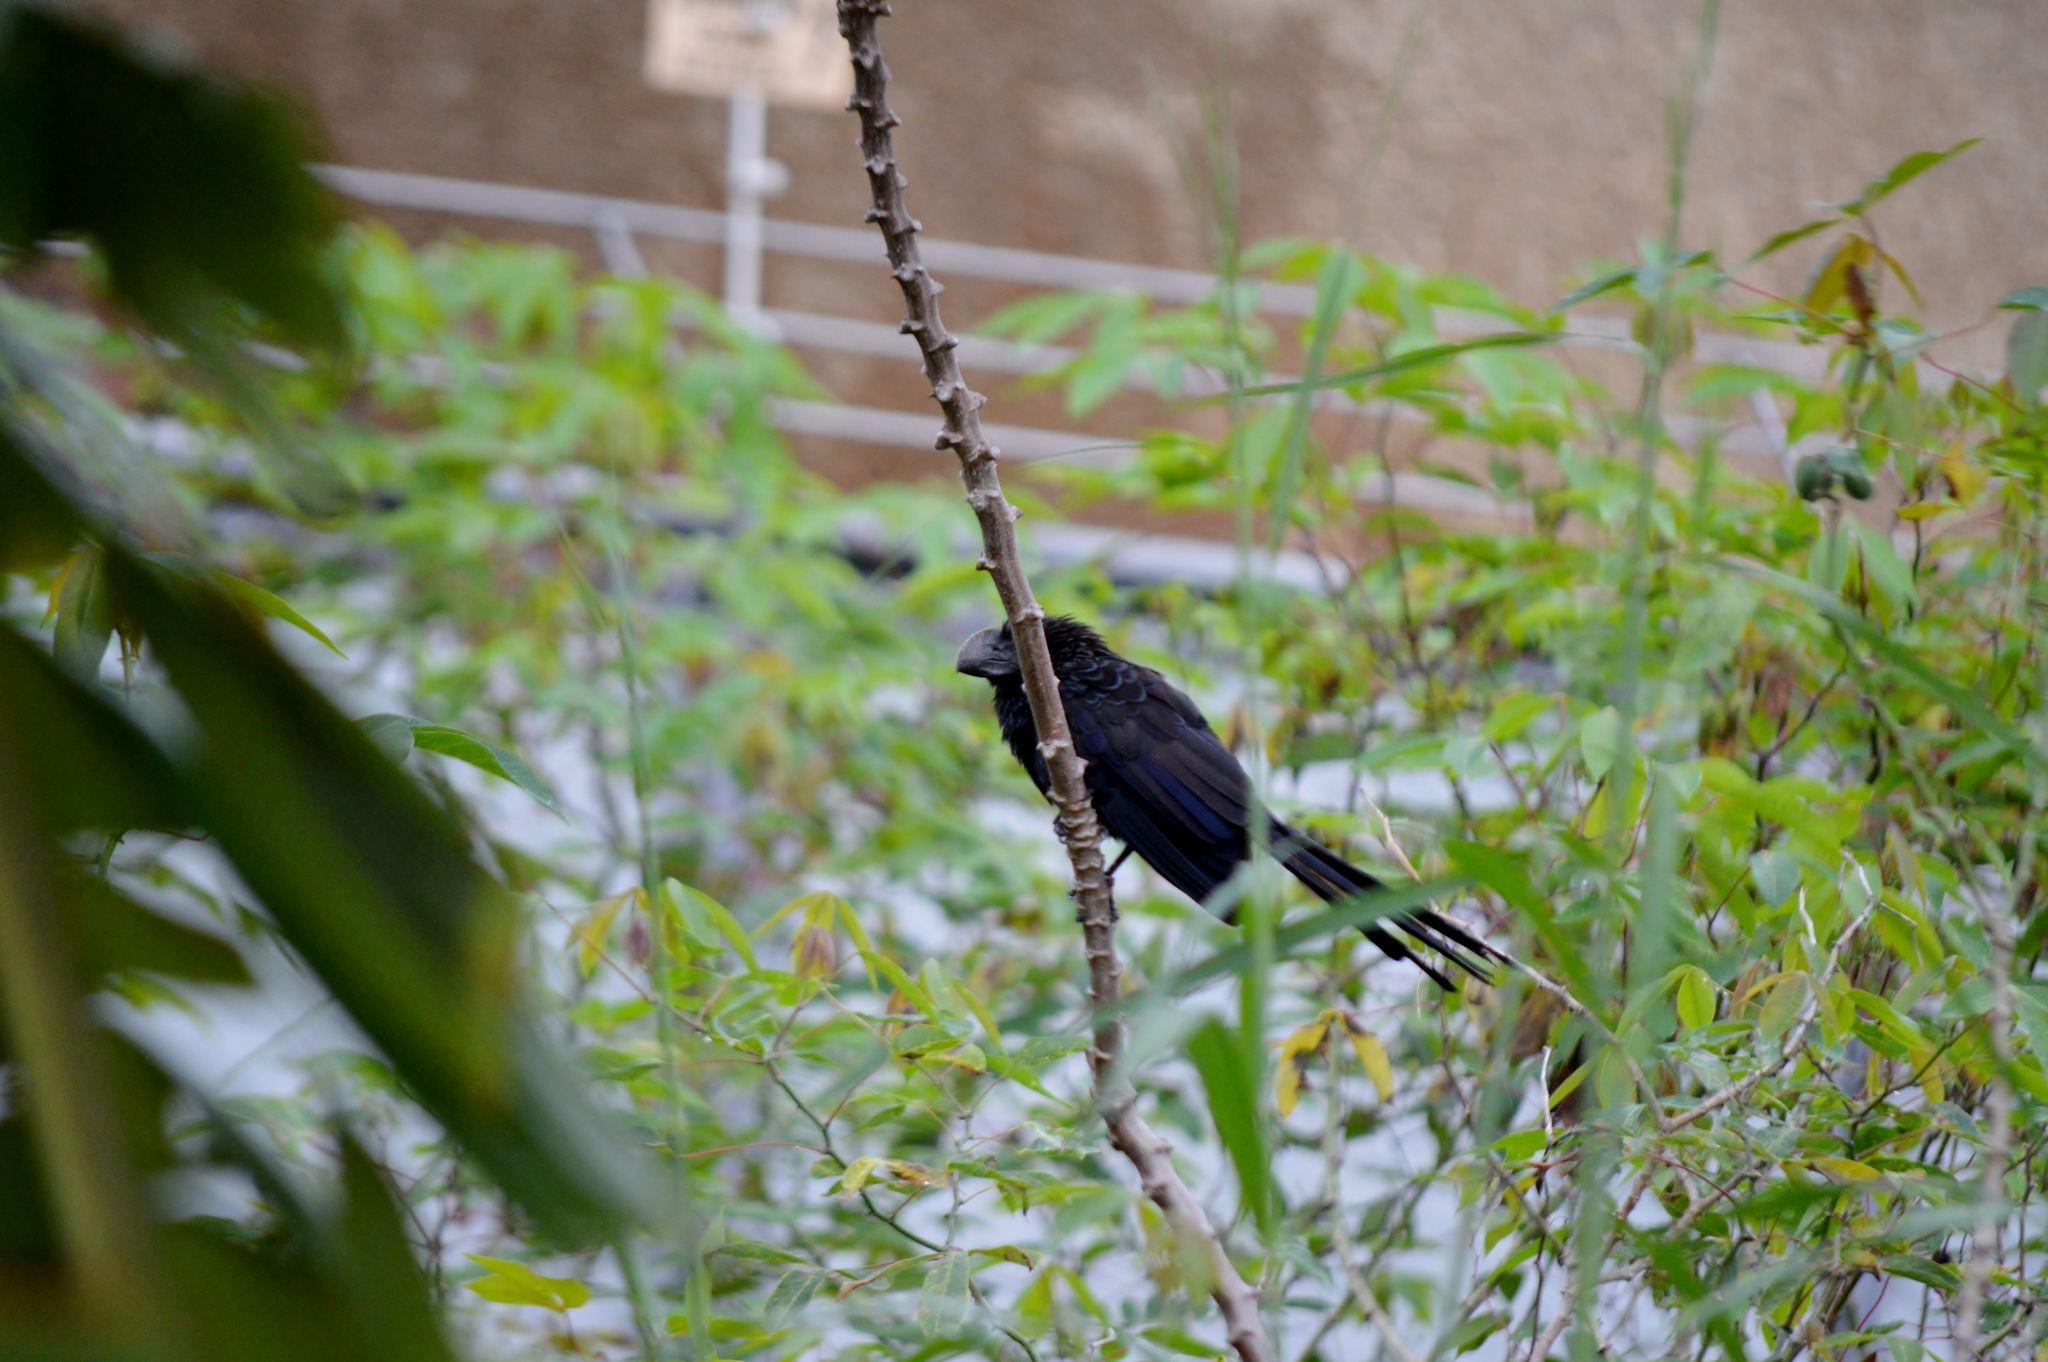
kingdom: Animalia
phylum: Chordata
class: Aves
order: Cuculiformes
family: Cuculidae
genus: Crotophaga
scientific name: Crotophaga ani
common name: Smooth-billed ani
